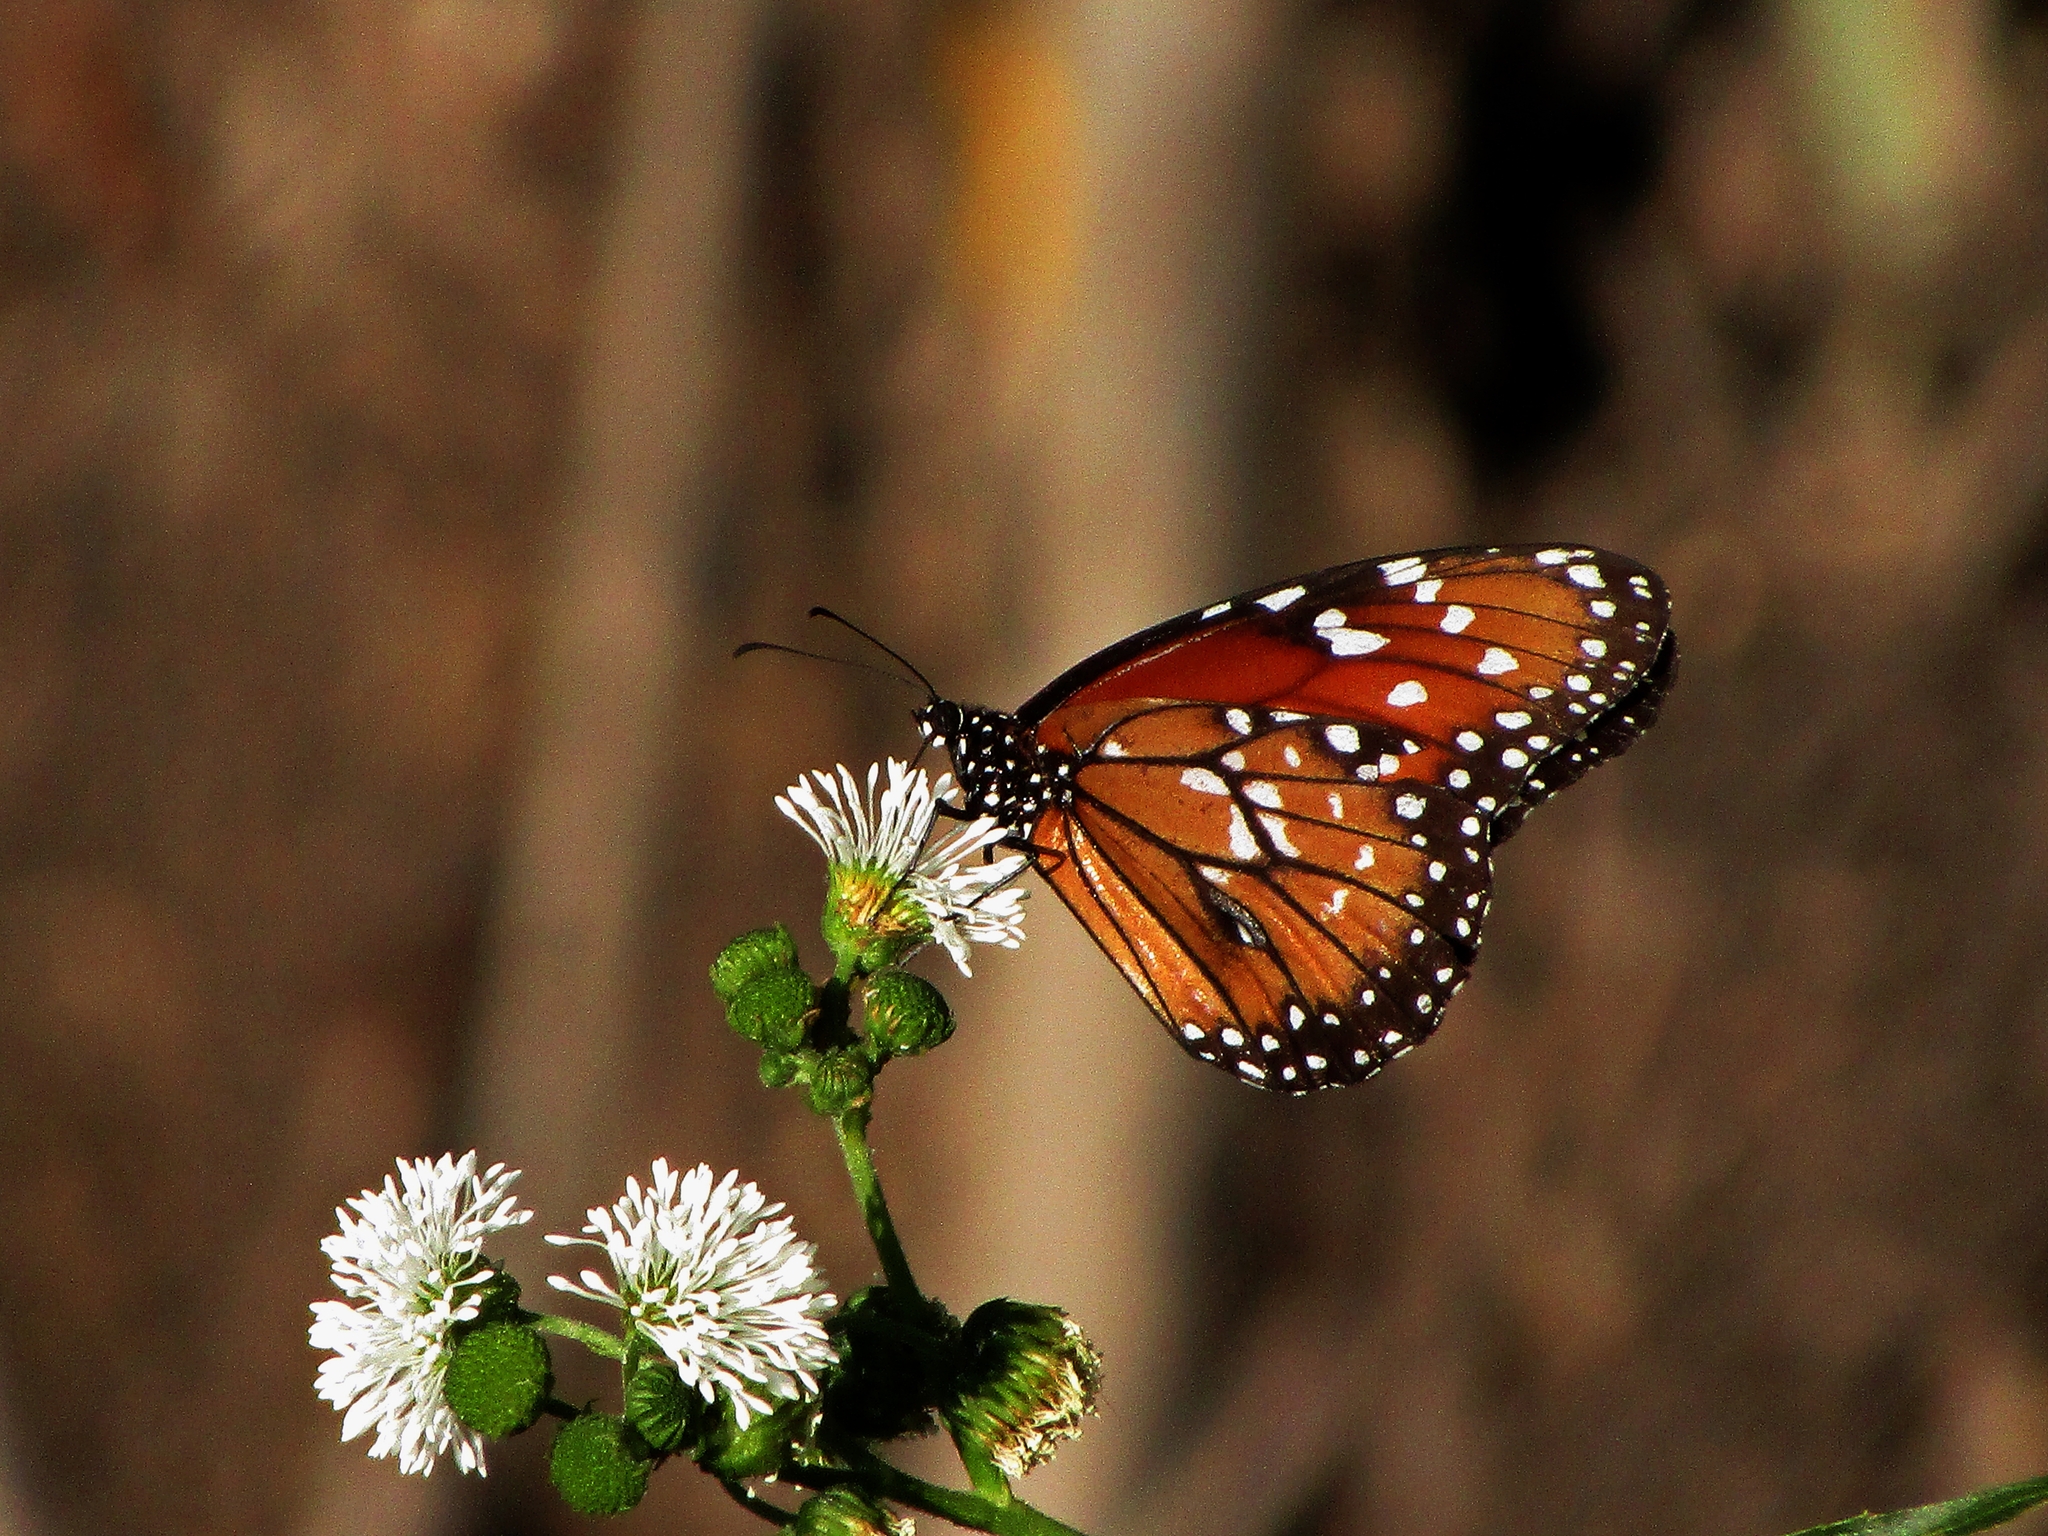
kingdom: Animalia
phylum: Arthropoda
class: Insecta
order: Lepidoptera
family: Nymphalidae
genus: Danaus
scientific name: Danaus eresimus
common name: Soldier
